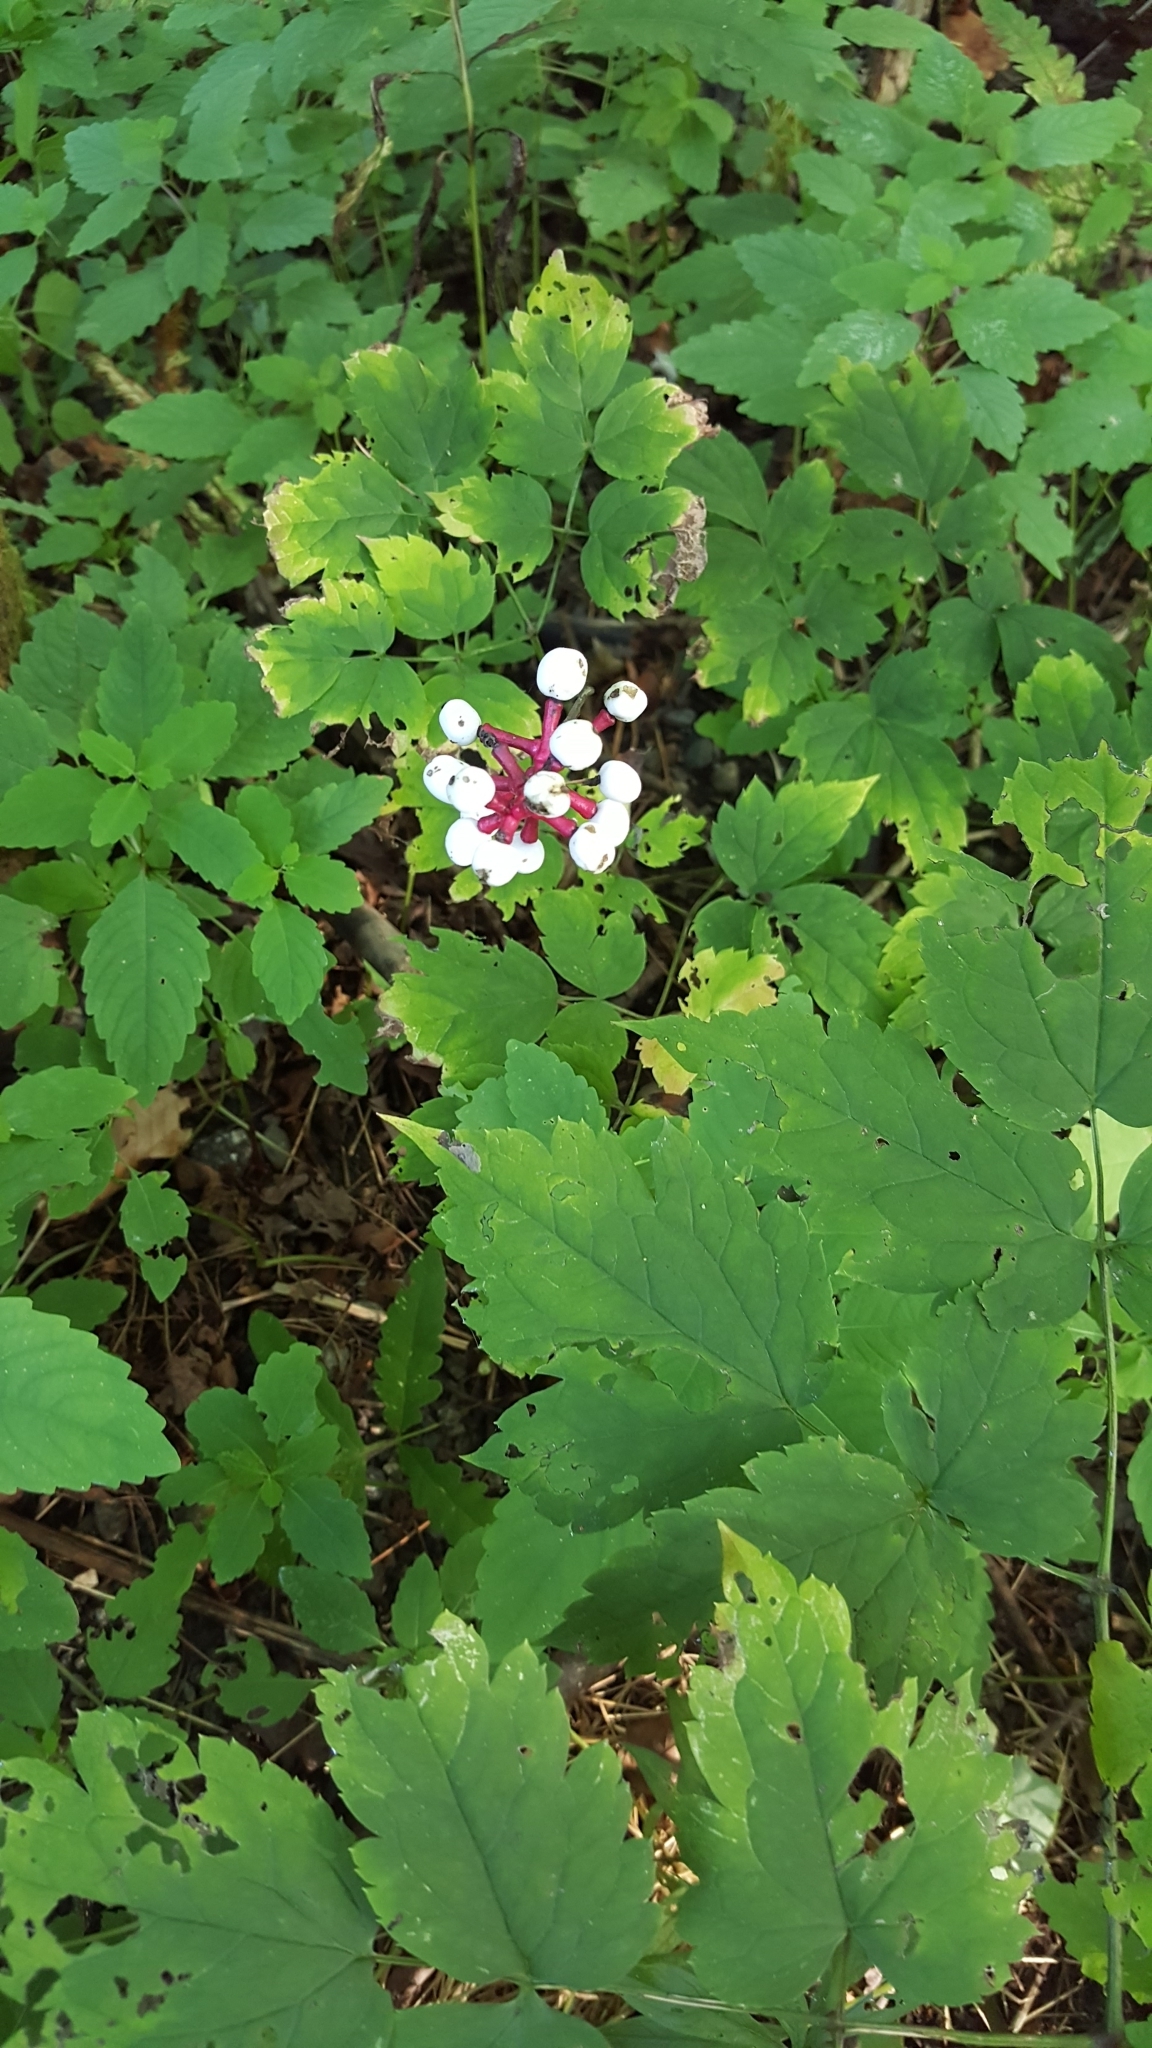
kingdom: Plantae
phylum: Tracheophyta
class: Magnoliopsida
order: Ranunculales
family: Ranunculaceae
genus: Actaea
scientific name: Actaea pachypoda
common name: Doll's-eyes
